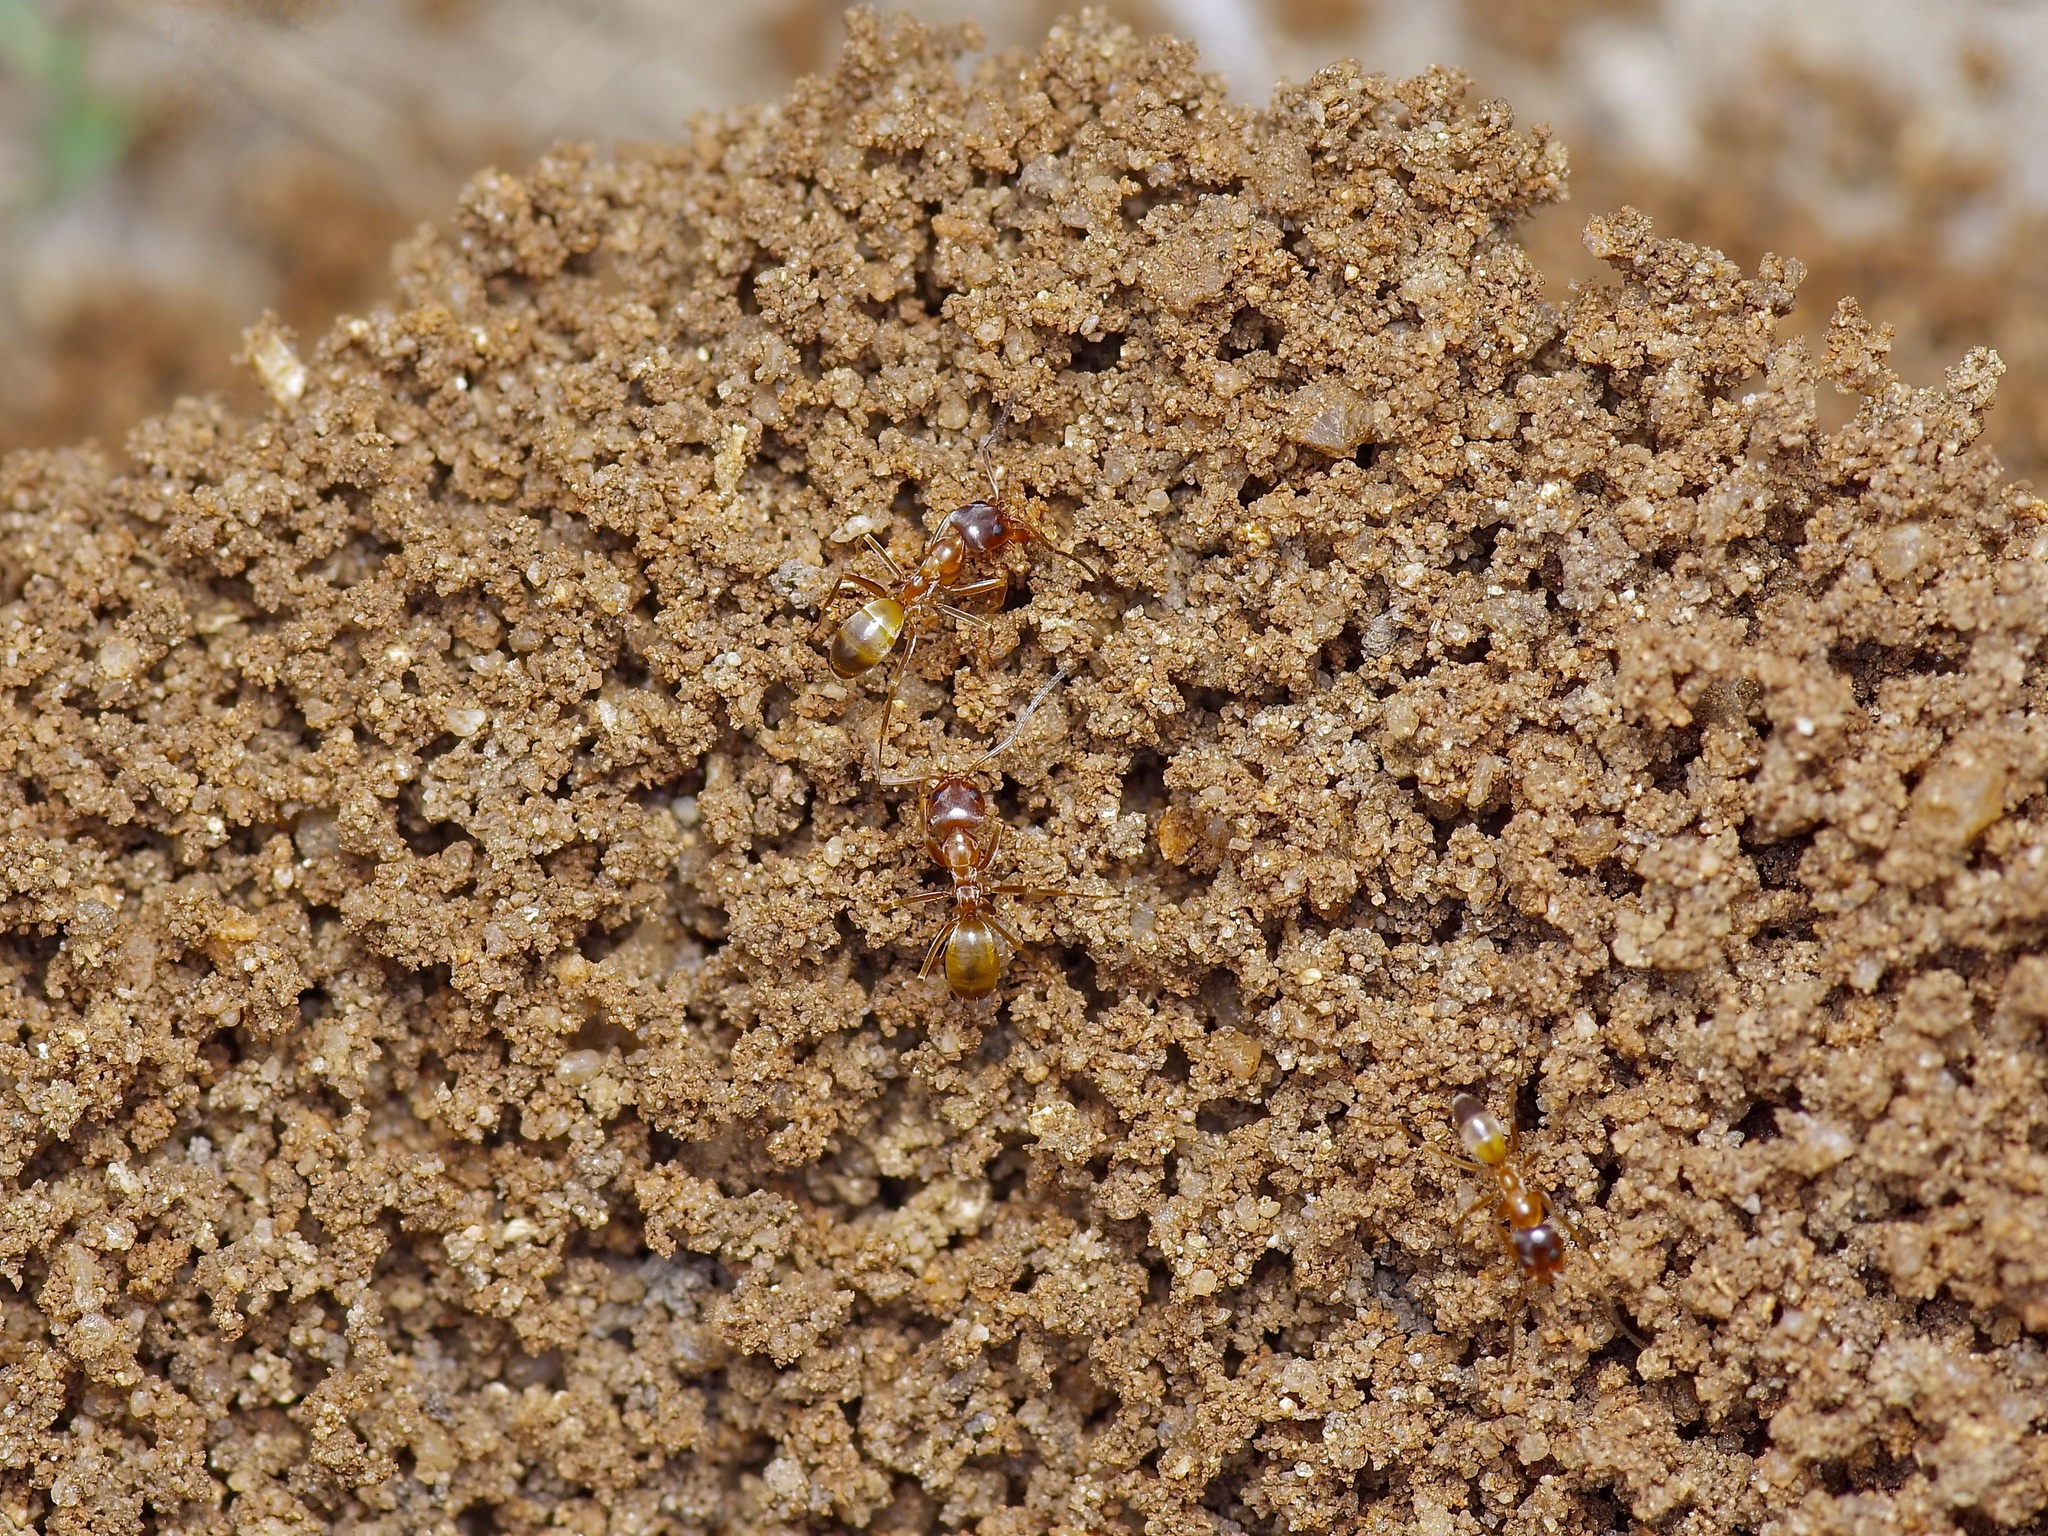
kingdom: Animalia
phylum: Arthropoda
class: Insecta
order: Hymenoptera
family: Formicidae
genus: Dorymyrmex
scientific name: Dorymyrmex flavus
